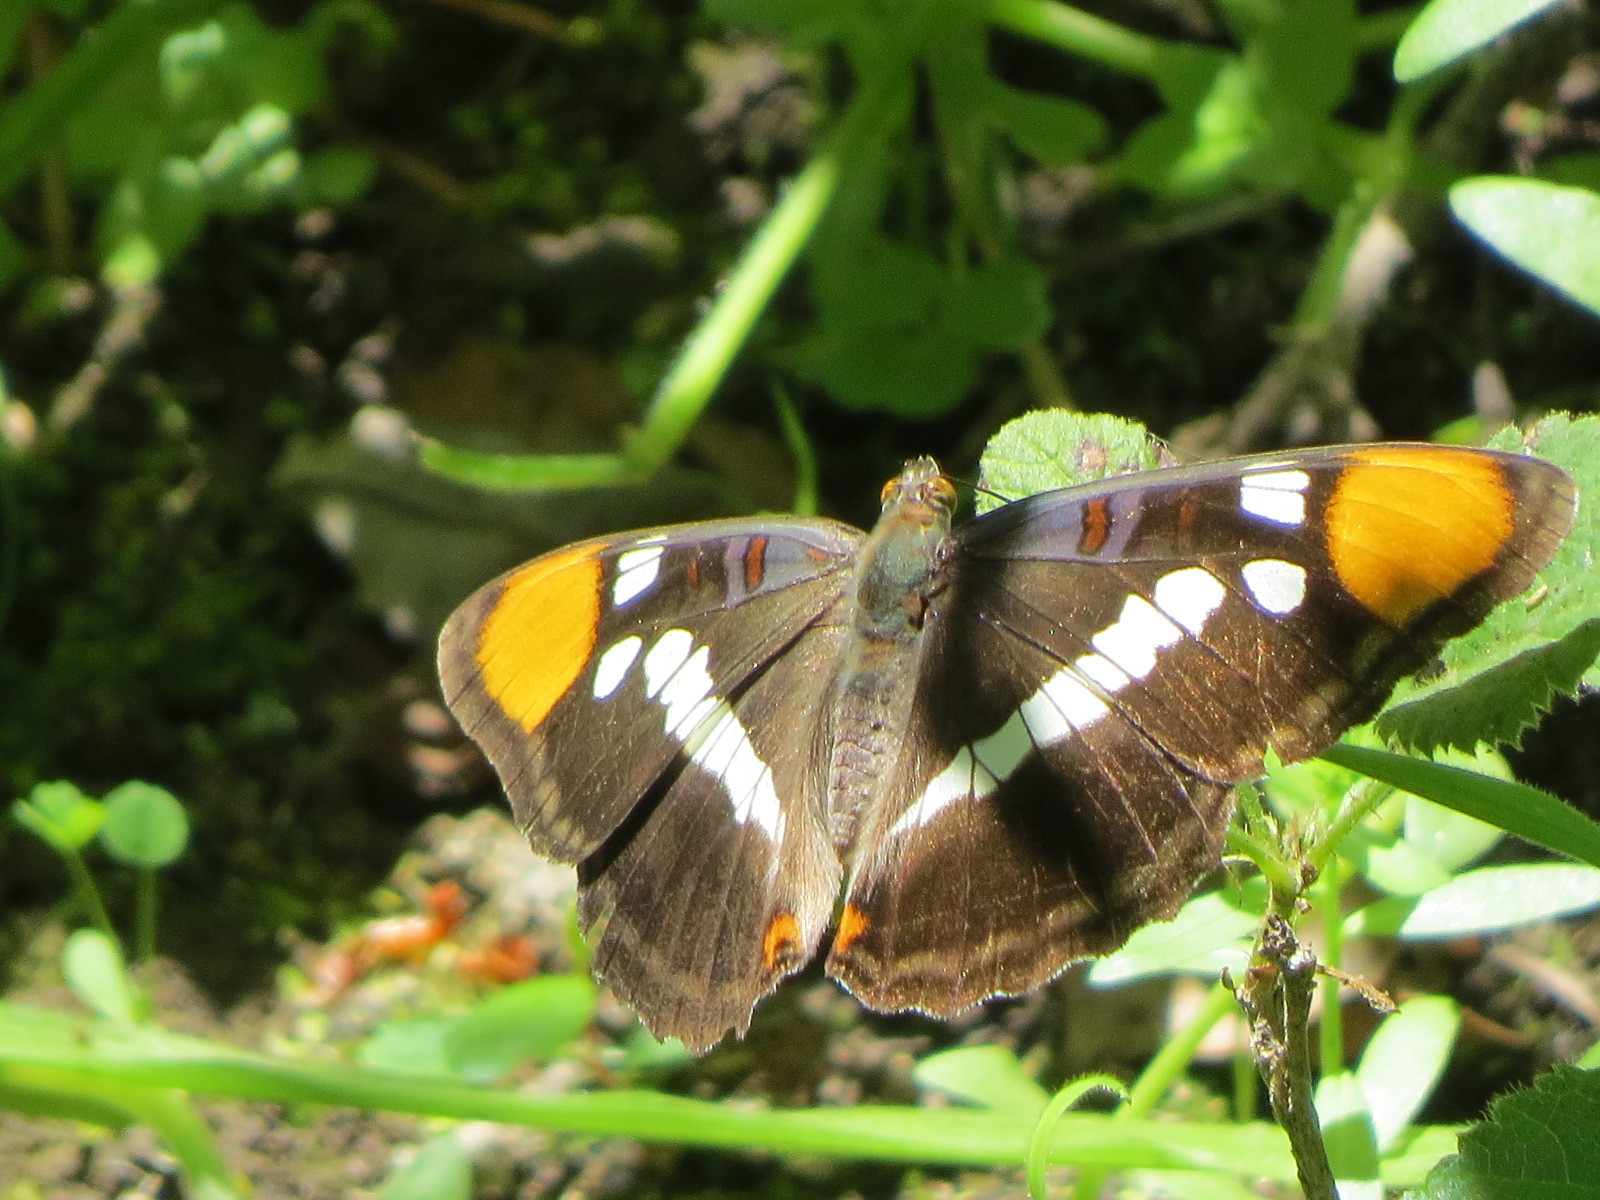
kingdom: Animalia
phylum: Arthropoda
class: Insecta
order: Lepidoptera
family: Nymphalidae
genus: Limenitis
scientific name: Limenitis bredowii
